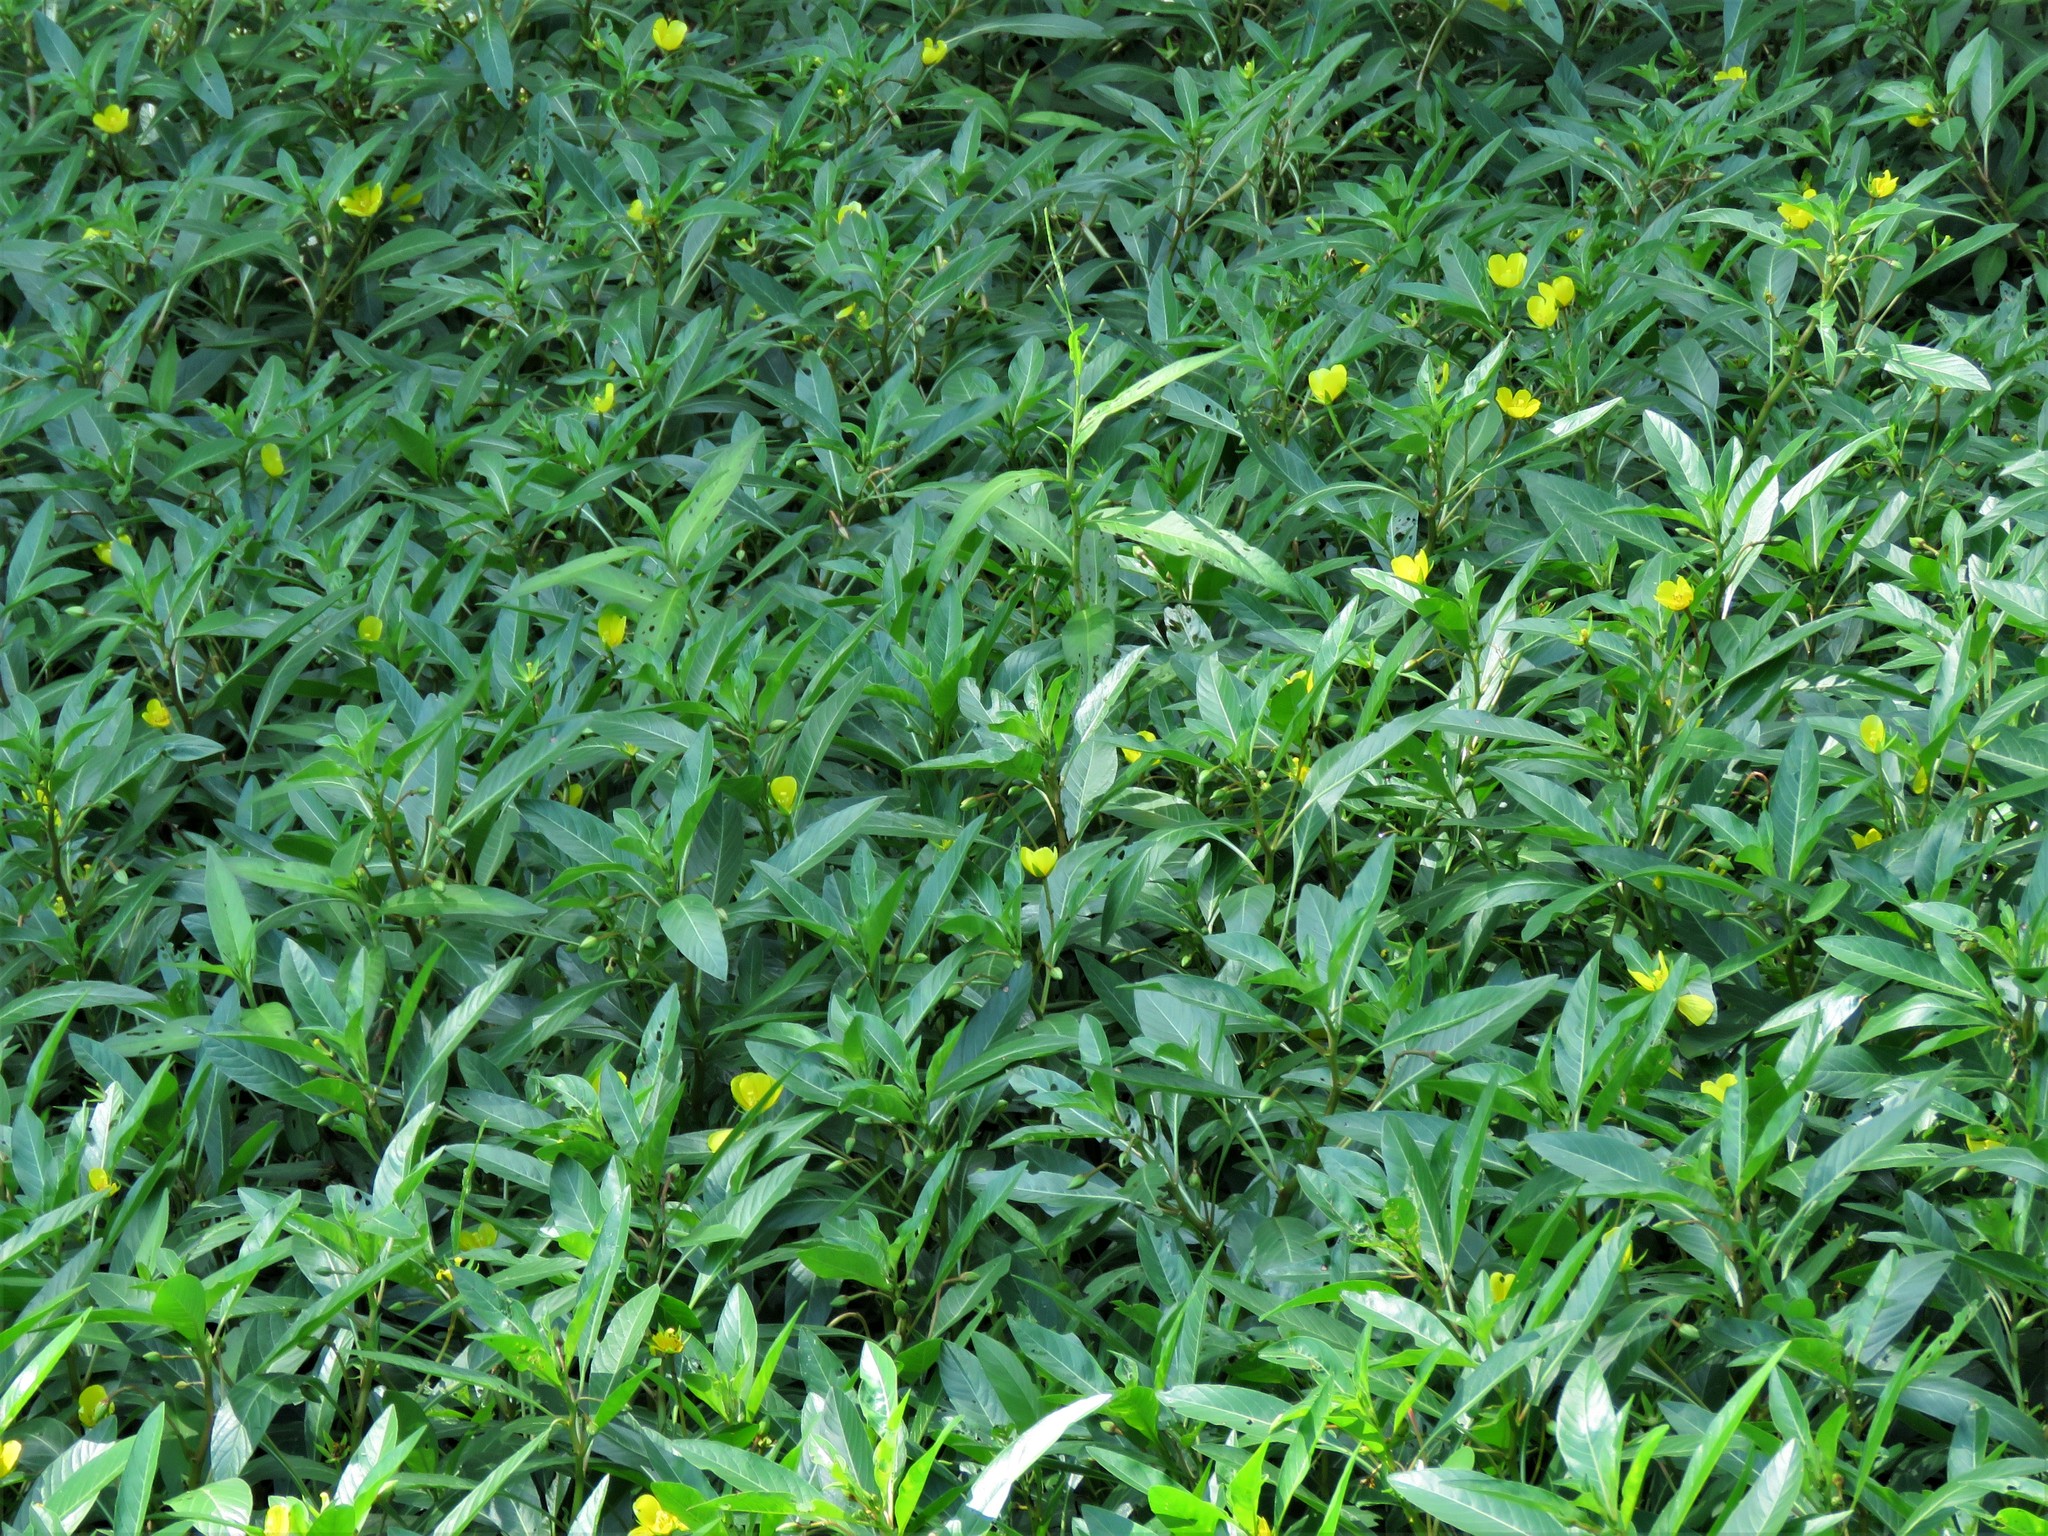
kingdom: Plantae
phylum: Tracheophyta
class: Magnoliopsida
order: Myrtales
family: Onagraceae
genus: Ludwigia
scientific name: Ludwigia peploides
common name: Floating primrose-willow
